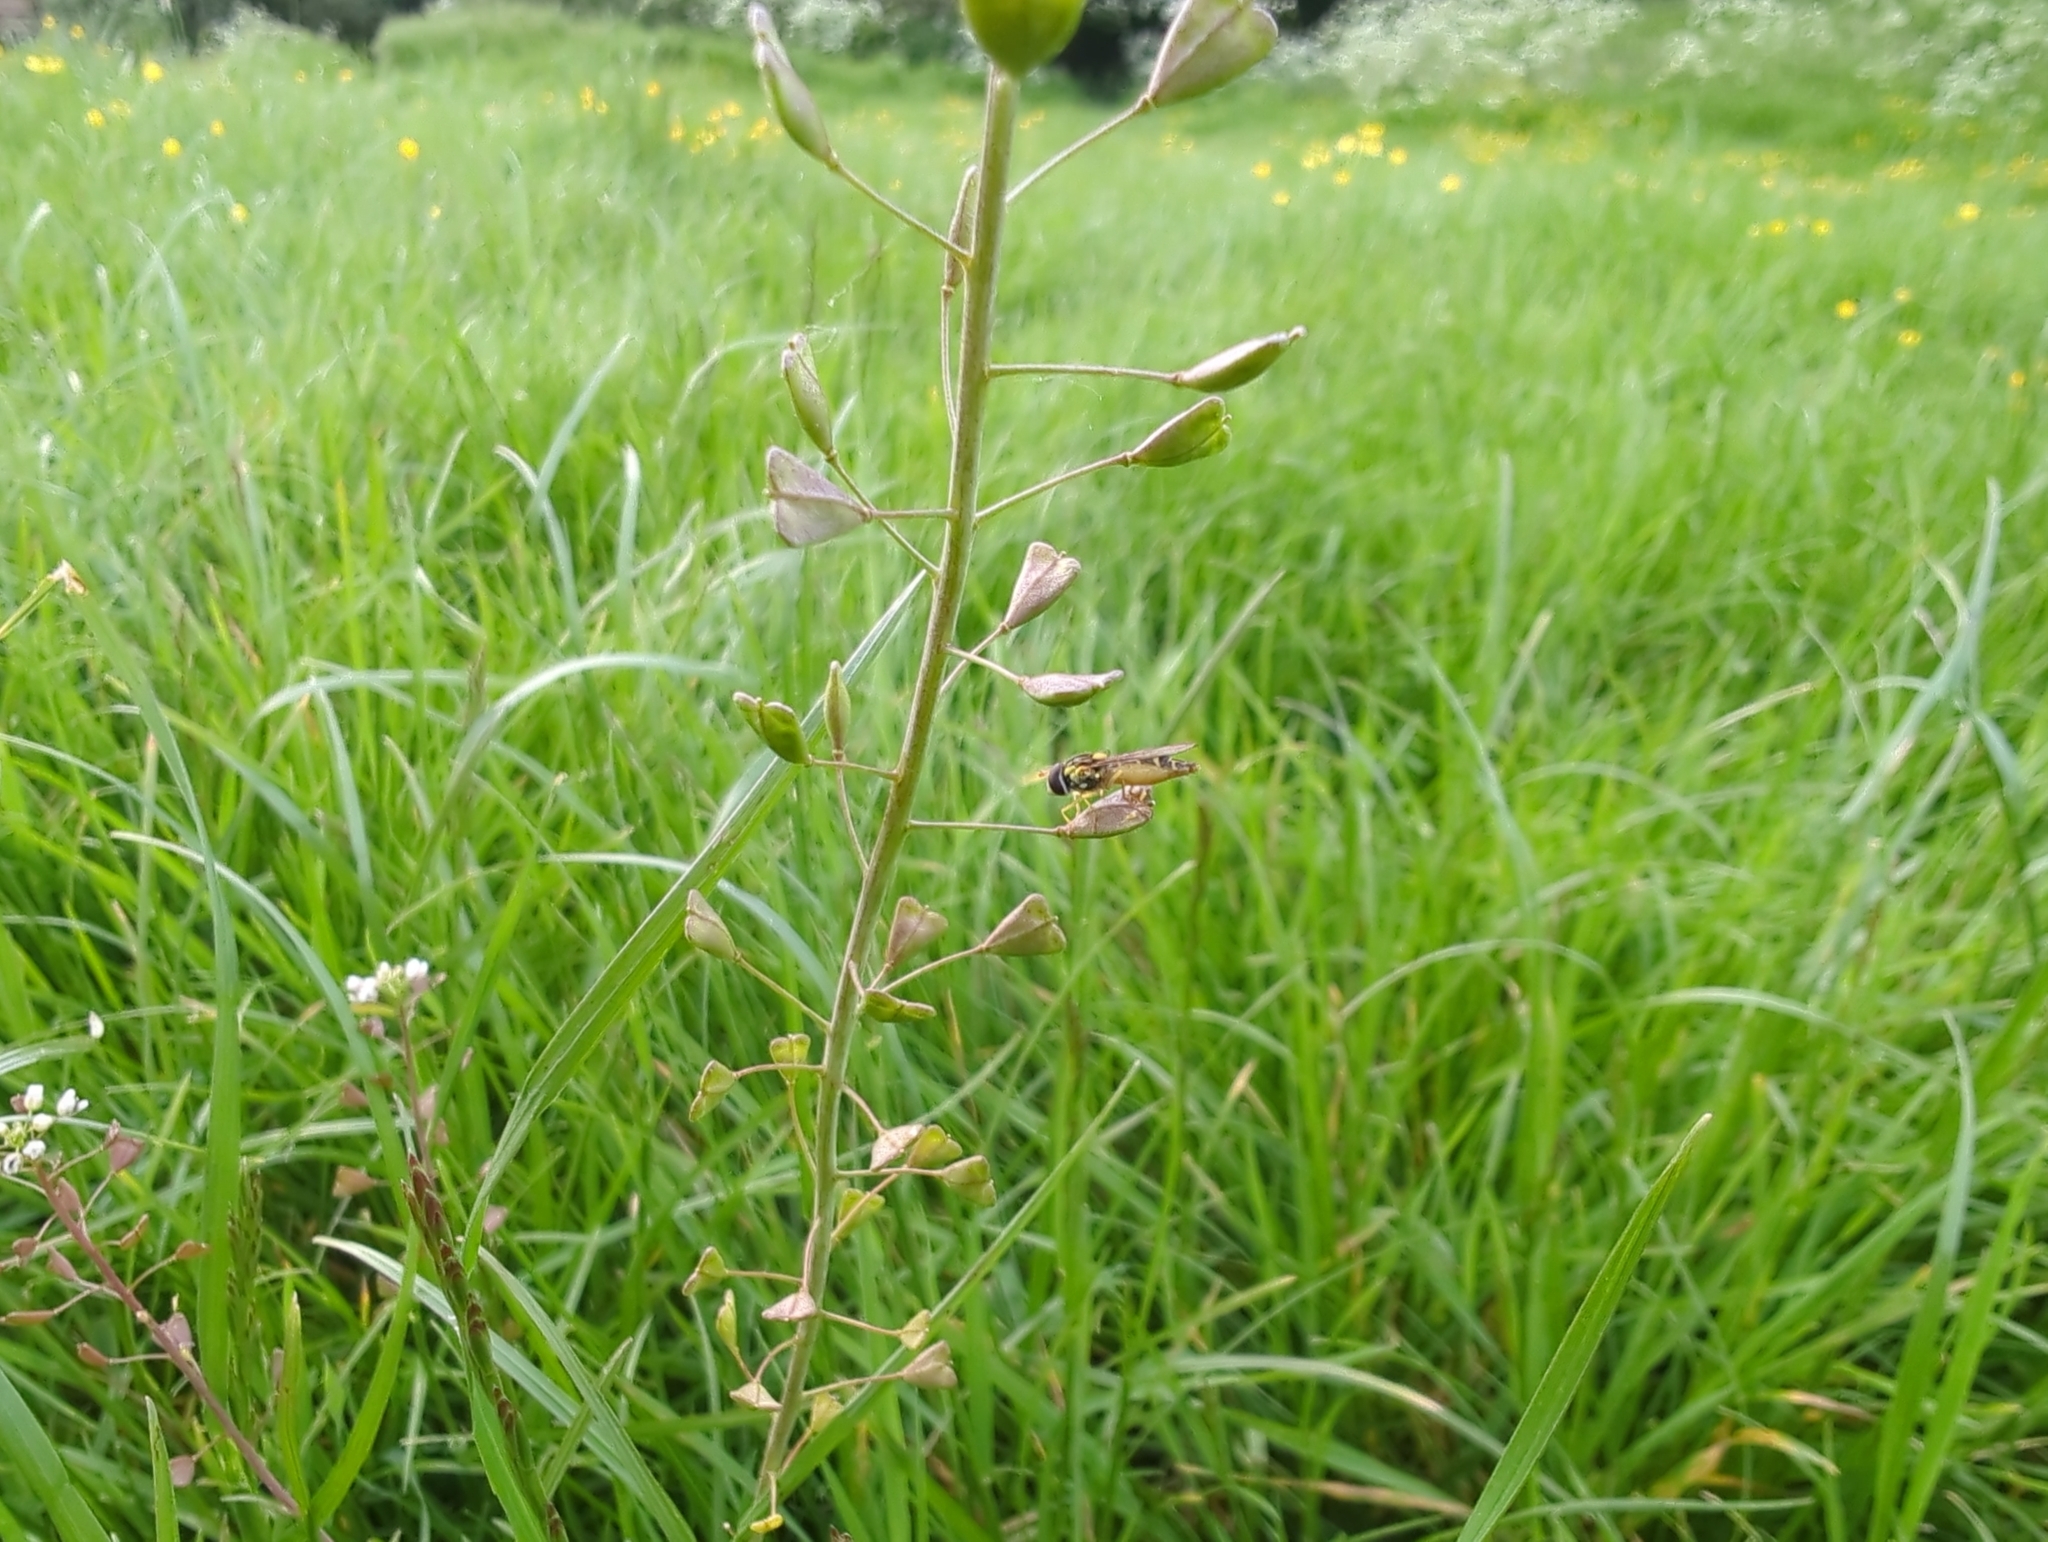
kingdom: Plantae
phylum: Tracheophyta
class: Magnoliopsida
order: Brassicales
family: Brassicaceae
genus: Capsella
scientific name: Capsella bursa-pastoris
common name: Shepherd's purse
